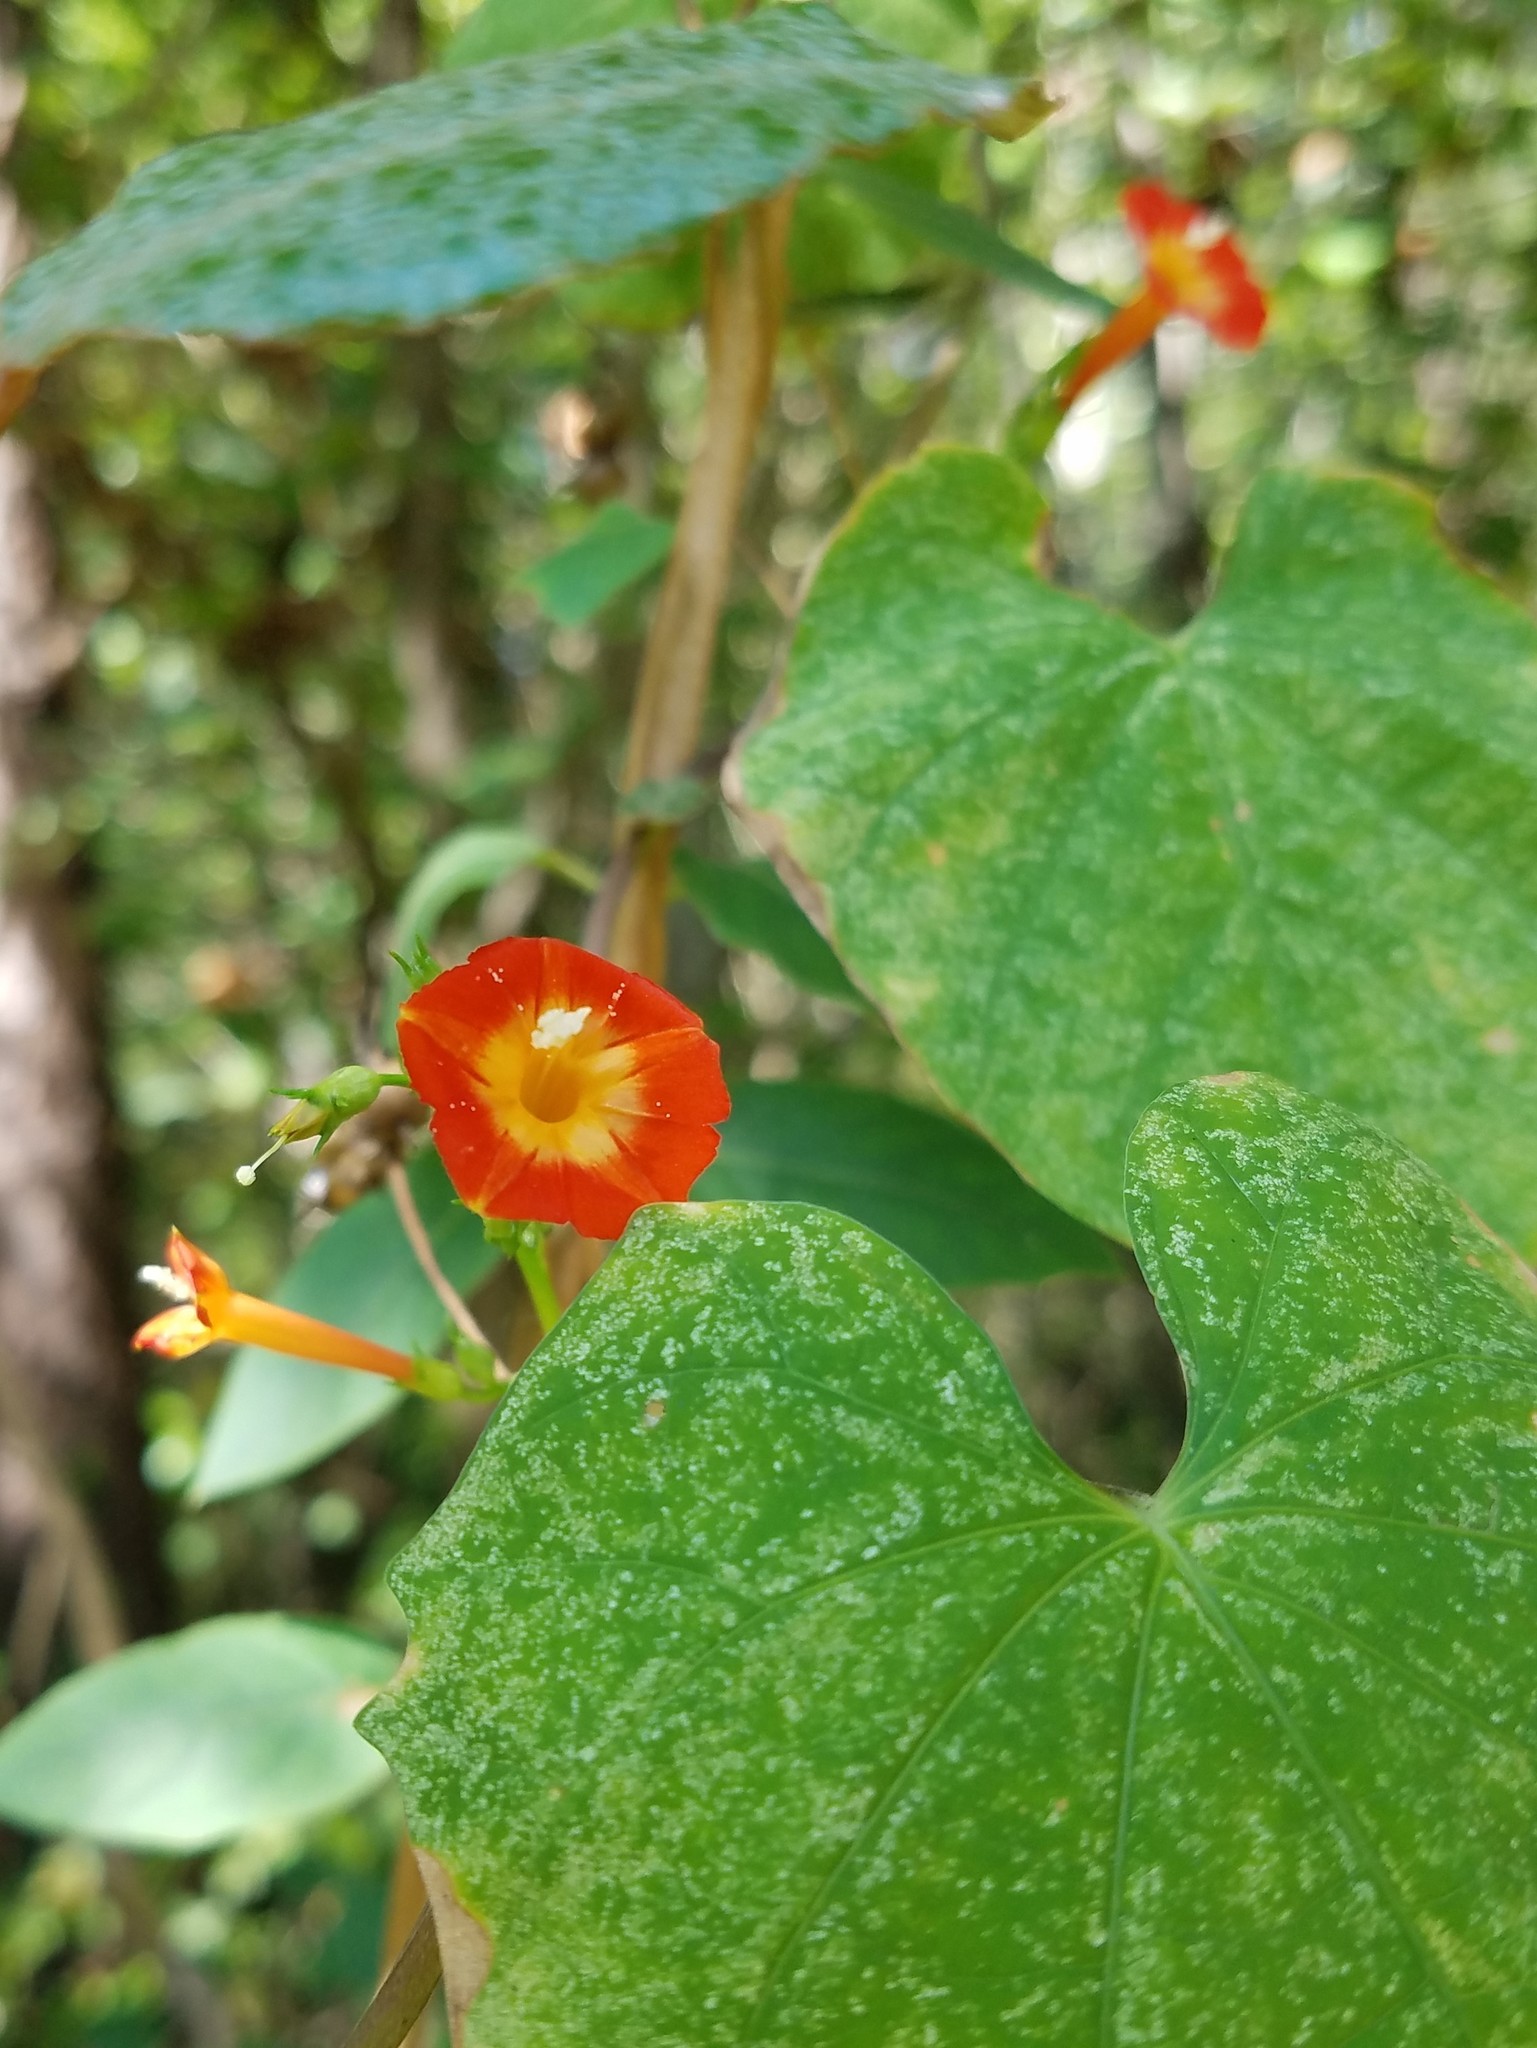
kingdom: Plantae
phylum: Tracheophyta
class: Magnoliopsida
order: Solanales
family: Convolvulaceae
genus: Ipomoea
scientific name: Ipomoea coccinea
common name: Red morning-glory
